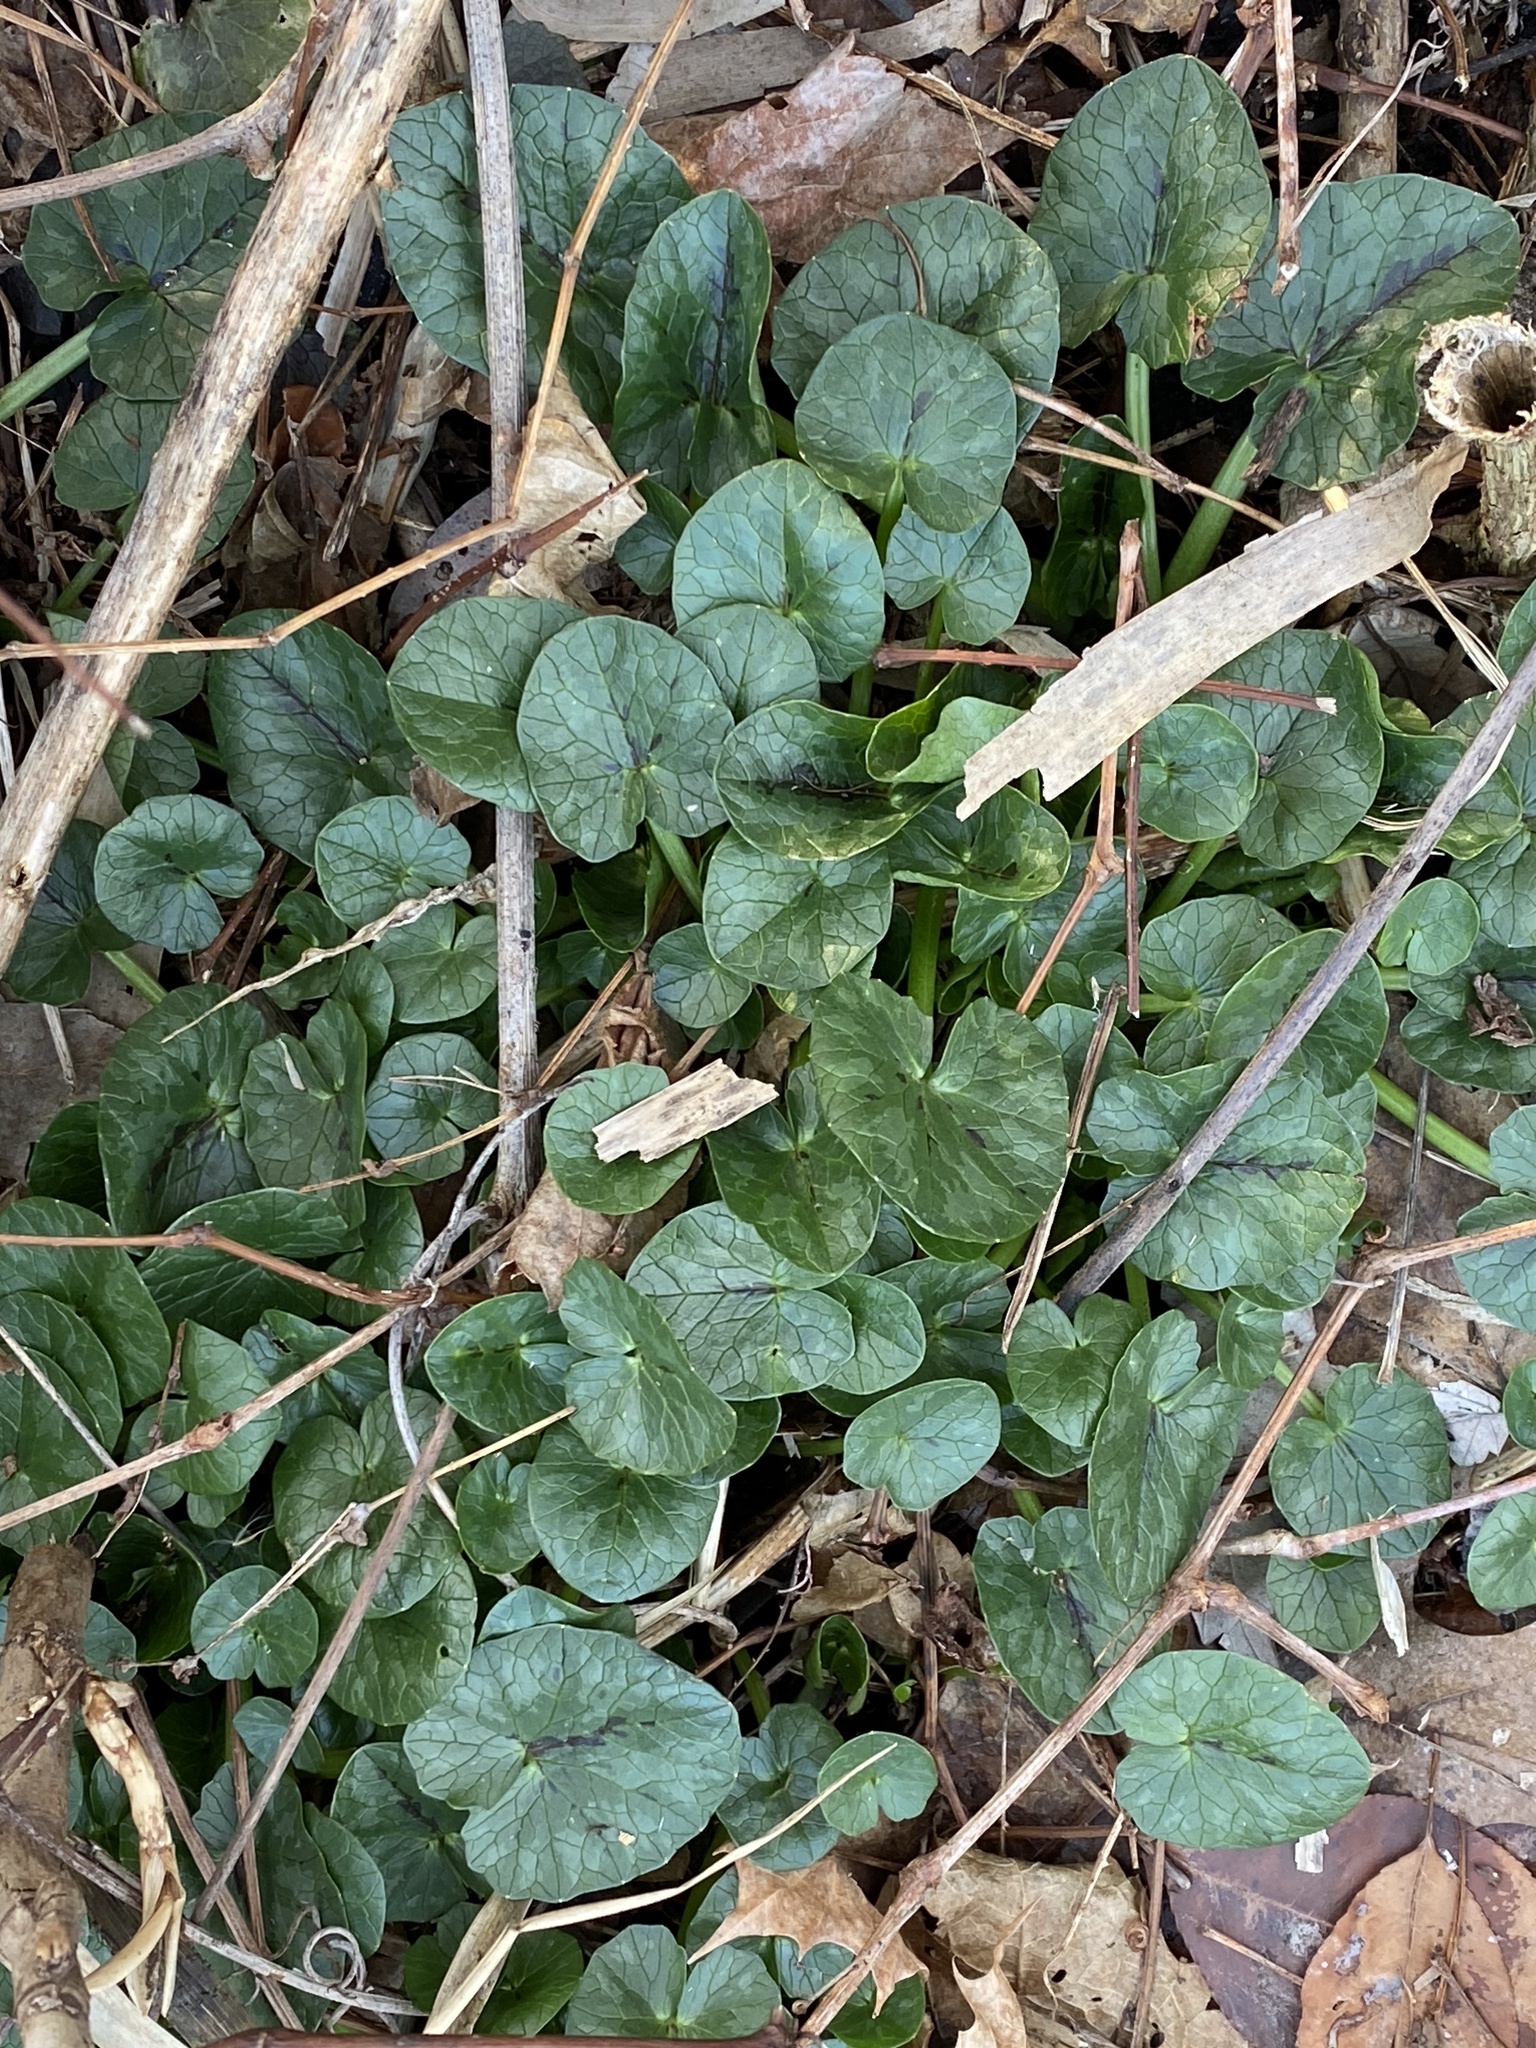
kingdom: Plantae
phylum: Tracheophyta
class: Magnoliopsida
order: Ranunculales
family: Ranunculaceae
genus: Ficaria
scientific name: Ficaria verna
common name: Lesser celandine
